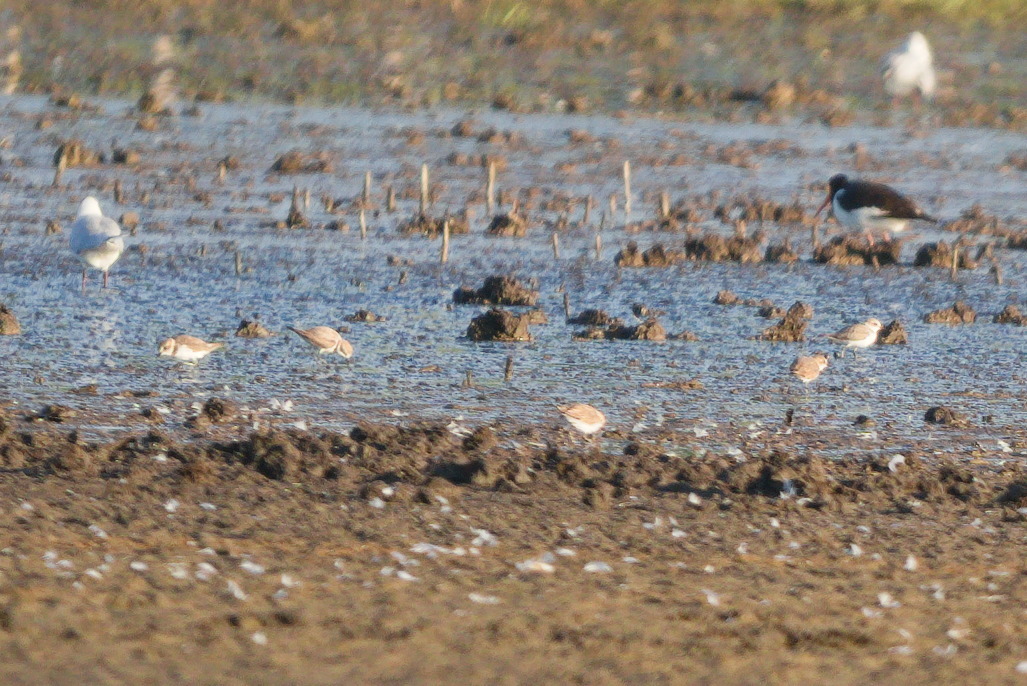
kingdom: Animalia
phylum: Chordata
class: Aves
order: Charadriiformes
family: Charadriidae
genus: Charadrius
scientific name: Charadrius alexandrinus
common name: Kentish plover
